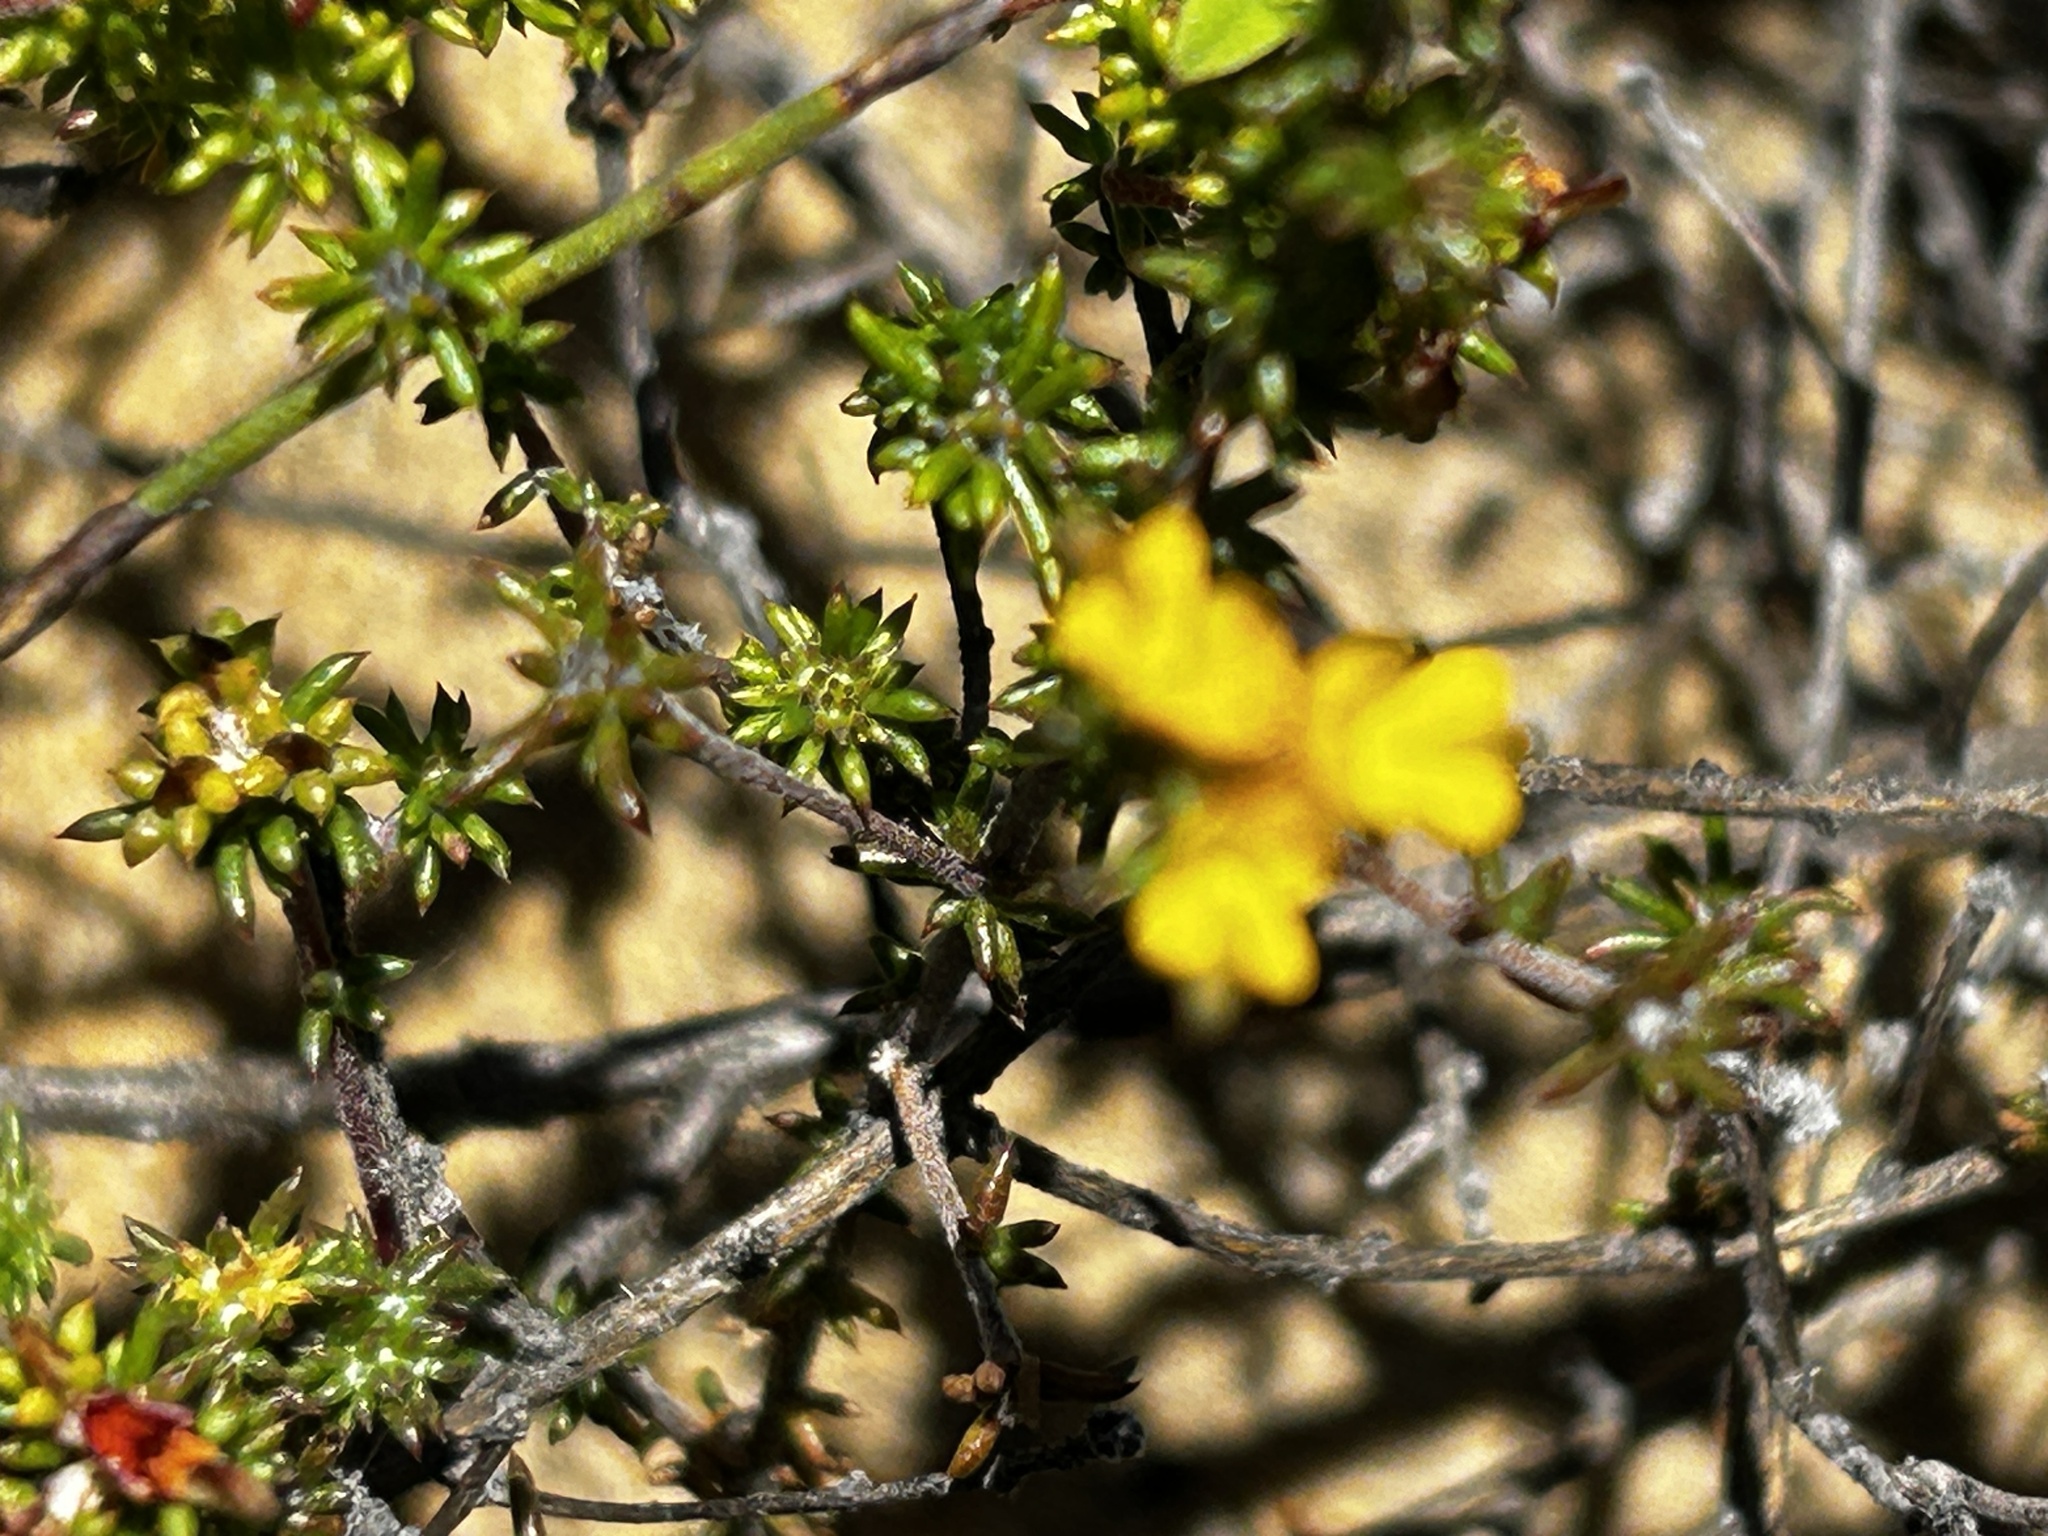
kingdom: Plantae
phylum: Tracheophyta
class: Magnoliopsida
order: Fabales
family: Fabaceae
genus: Aspalathus
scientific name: Aspalathus crassisepala
